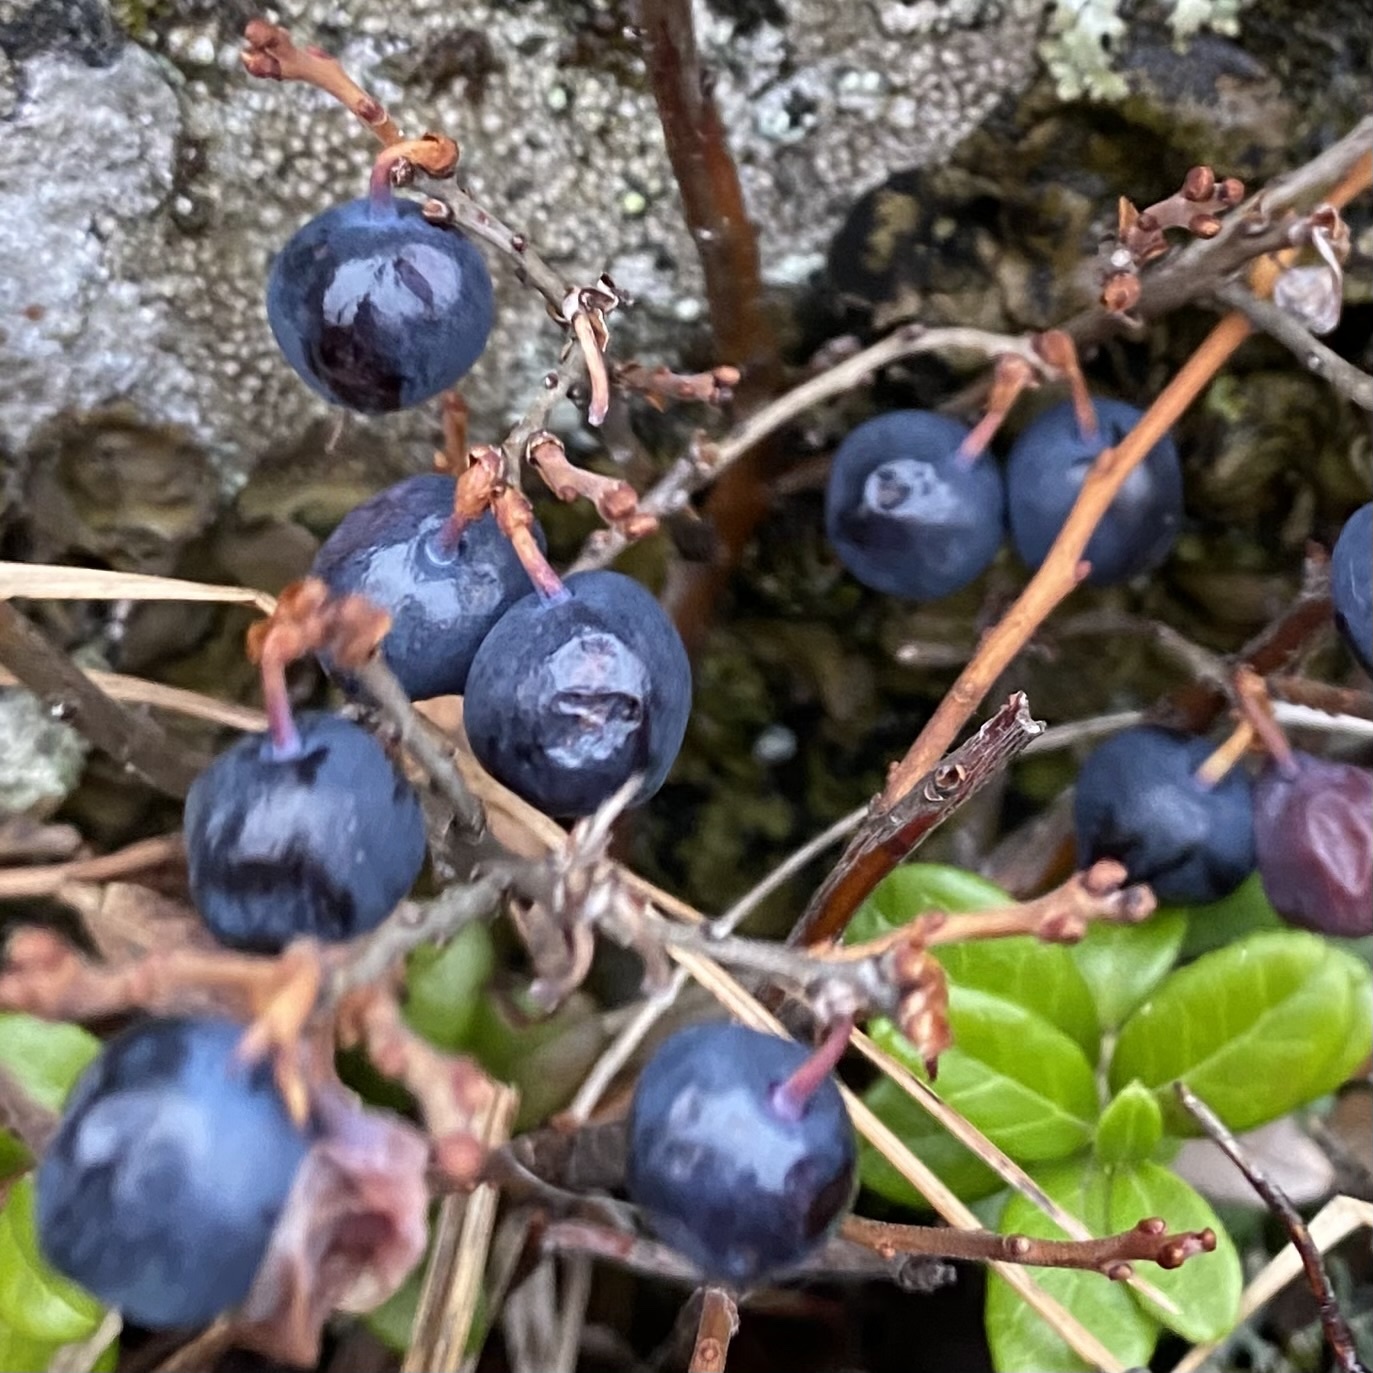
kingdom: Plantae
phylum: Tracheophyta
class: Magnoliopsida
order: Ericales
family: Ericaceae
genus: Vaccinium
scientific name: Vaccinium myrtillus
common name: Bilberry
